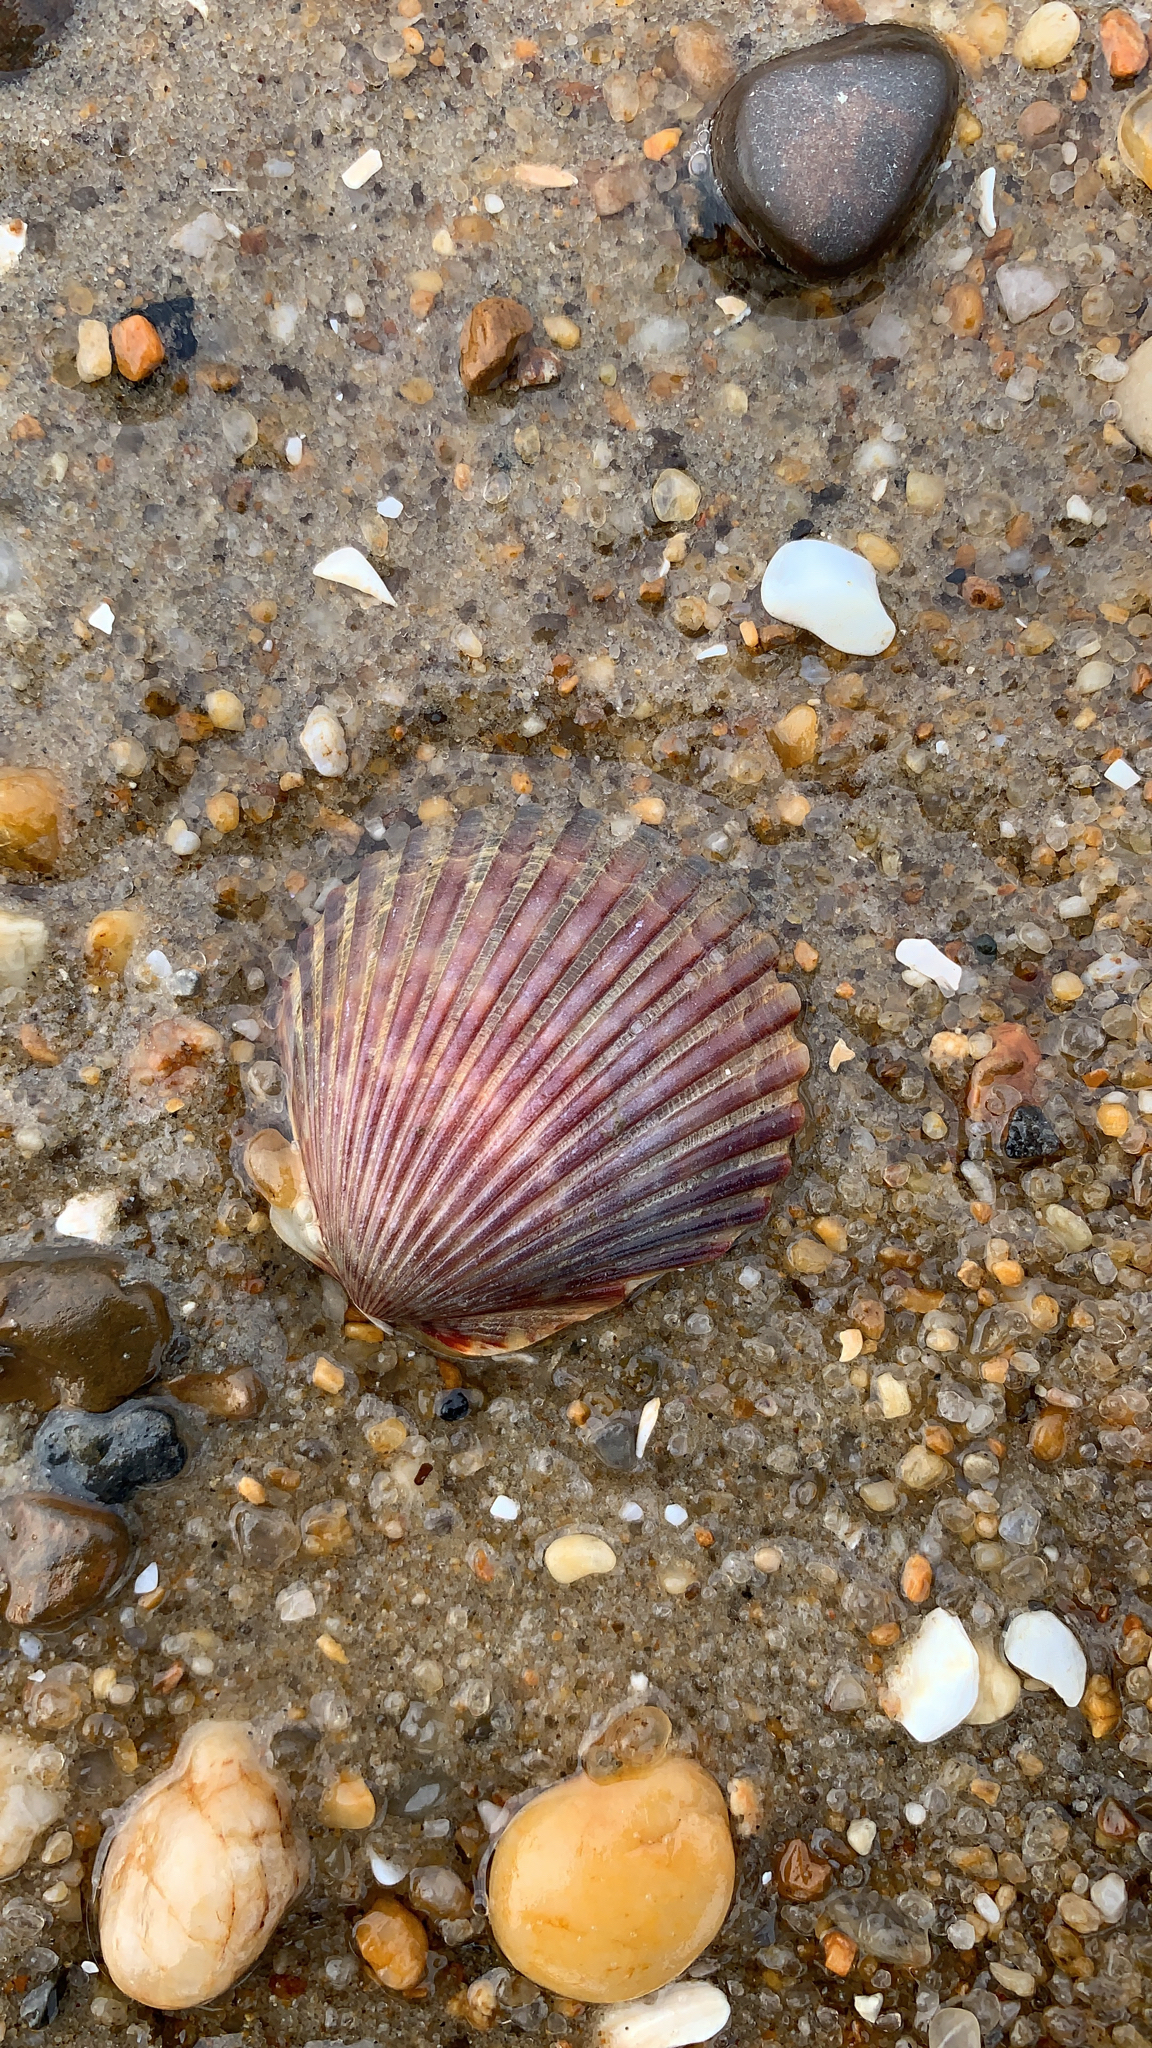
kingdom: Animalia
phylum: Mollusca
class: Bivalvia
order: Pectinida
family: Pectinidae
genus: Argopecten
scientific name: Argopecten irradians
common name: Atlantic bay scallop
